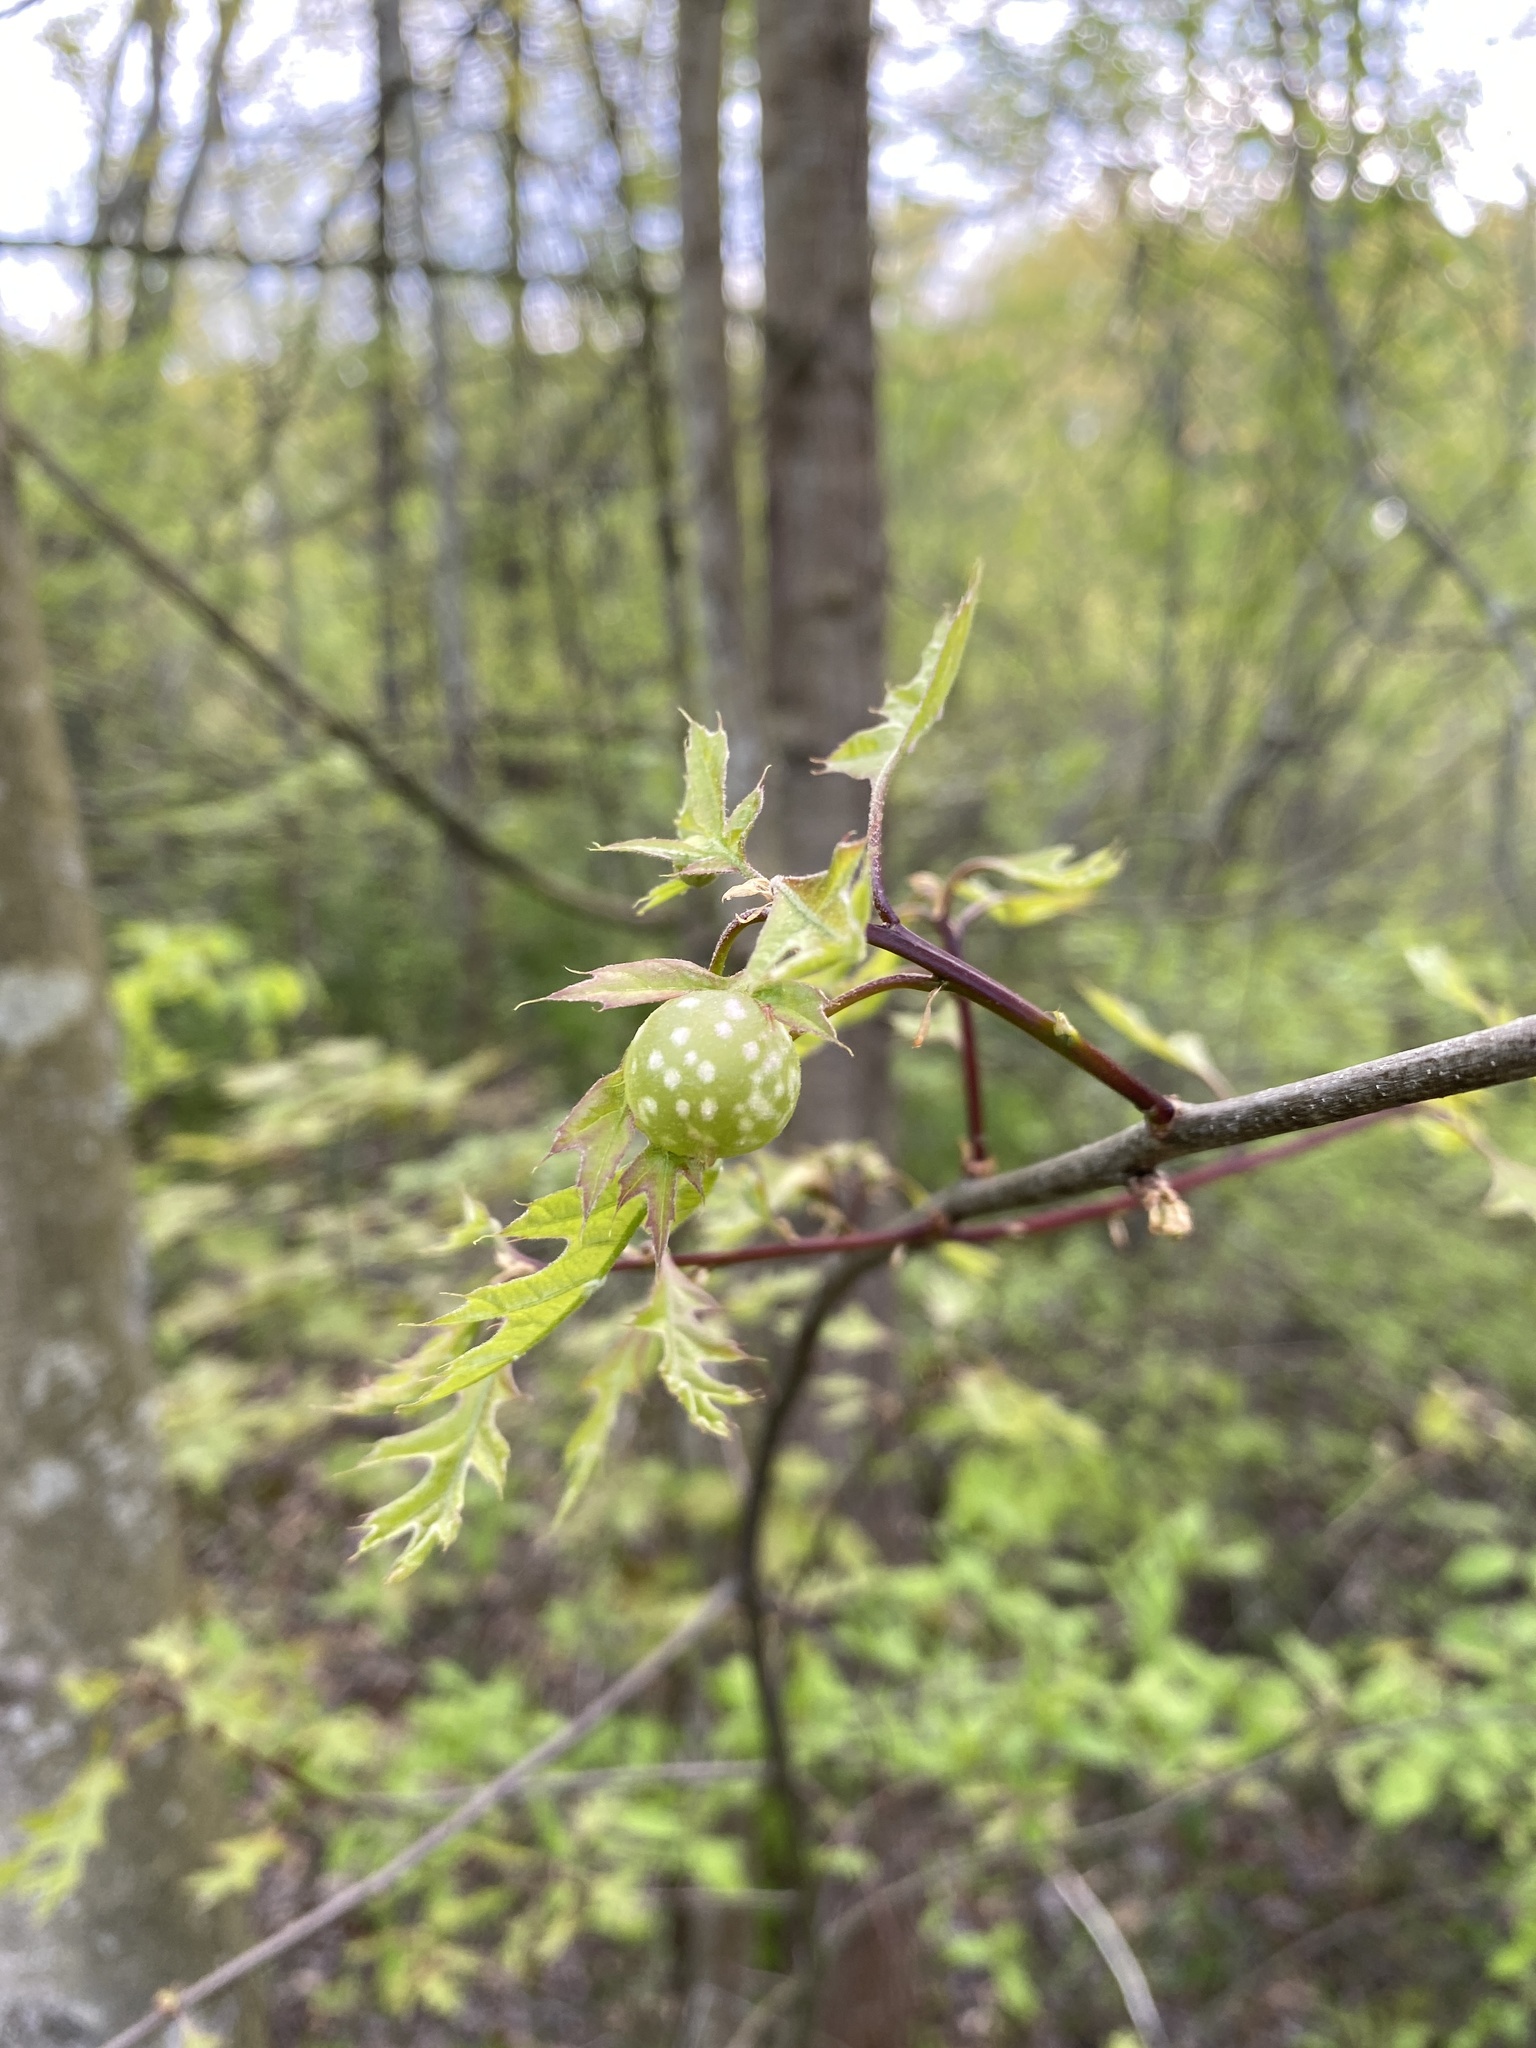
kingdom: Animalia
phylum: Arthropoda
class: Insecta
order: Hymenoptera
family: Cynipidae
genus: Dryocosmus
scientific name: Dryocosmus quercuspalustris
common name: Succulent oak gall wasp
